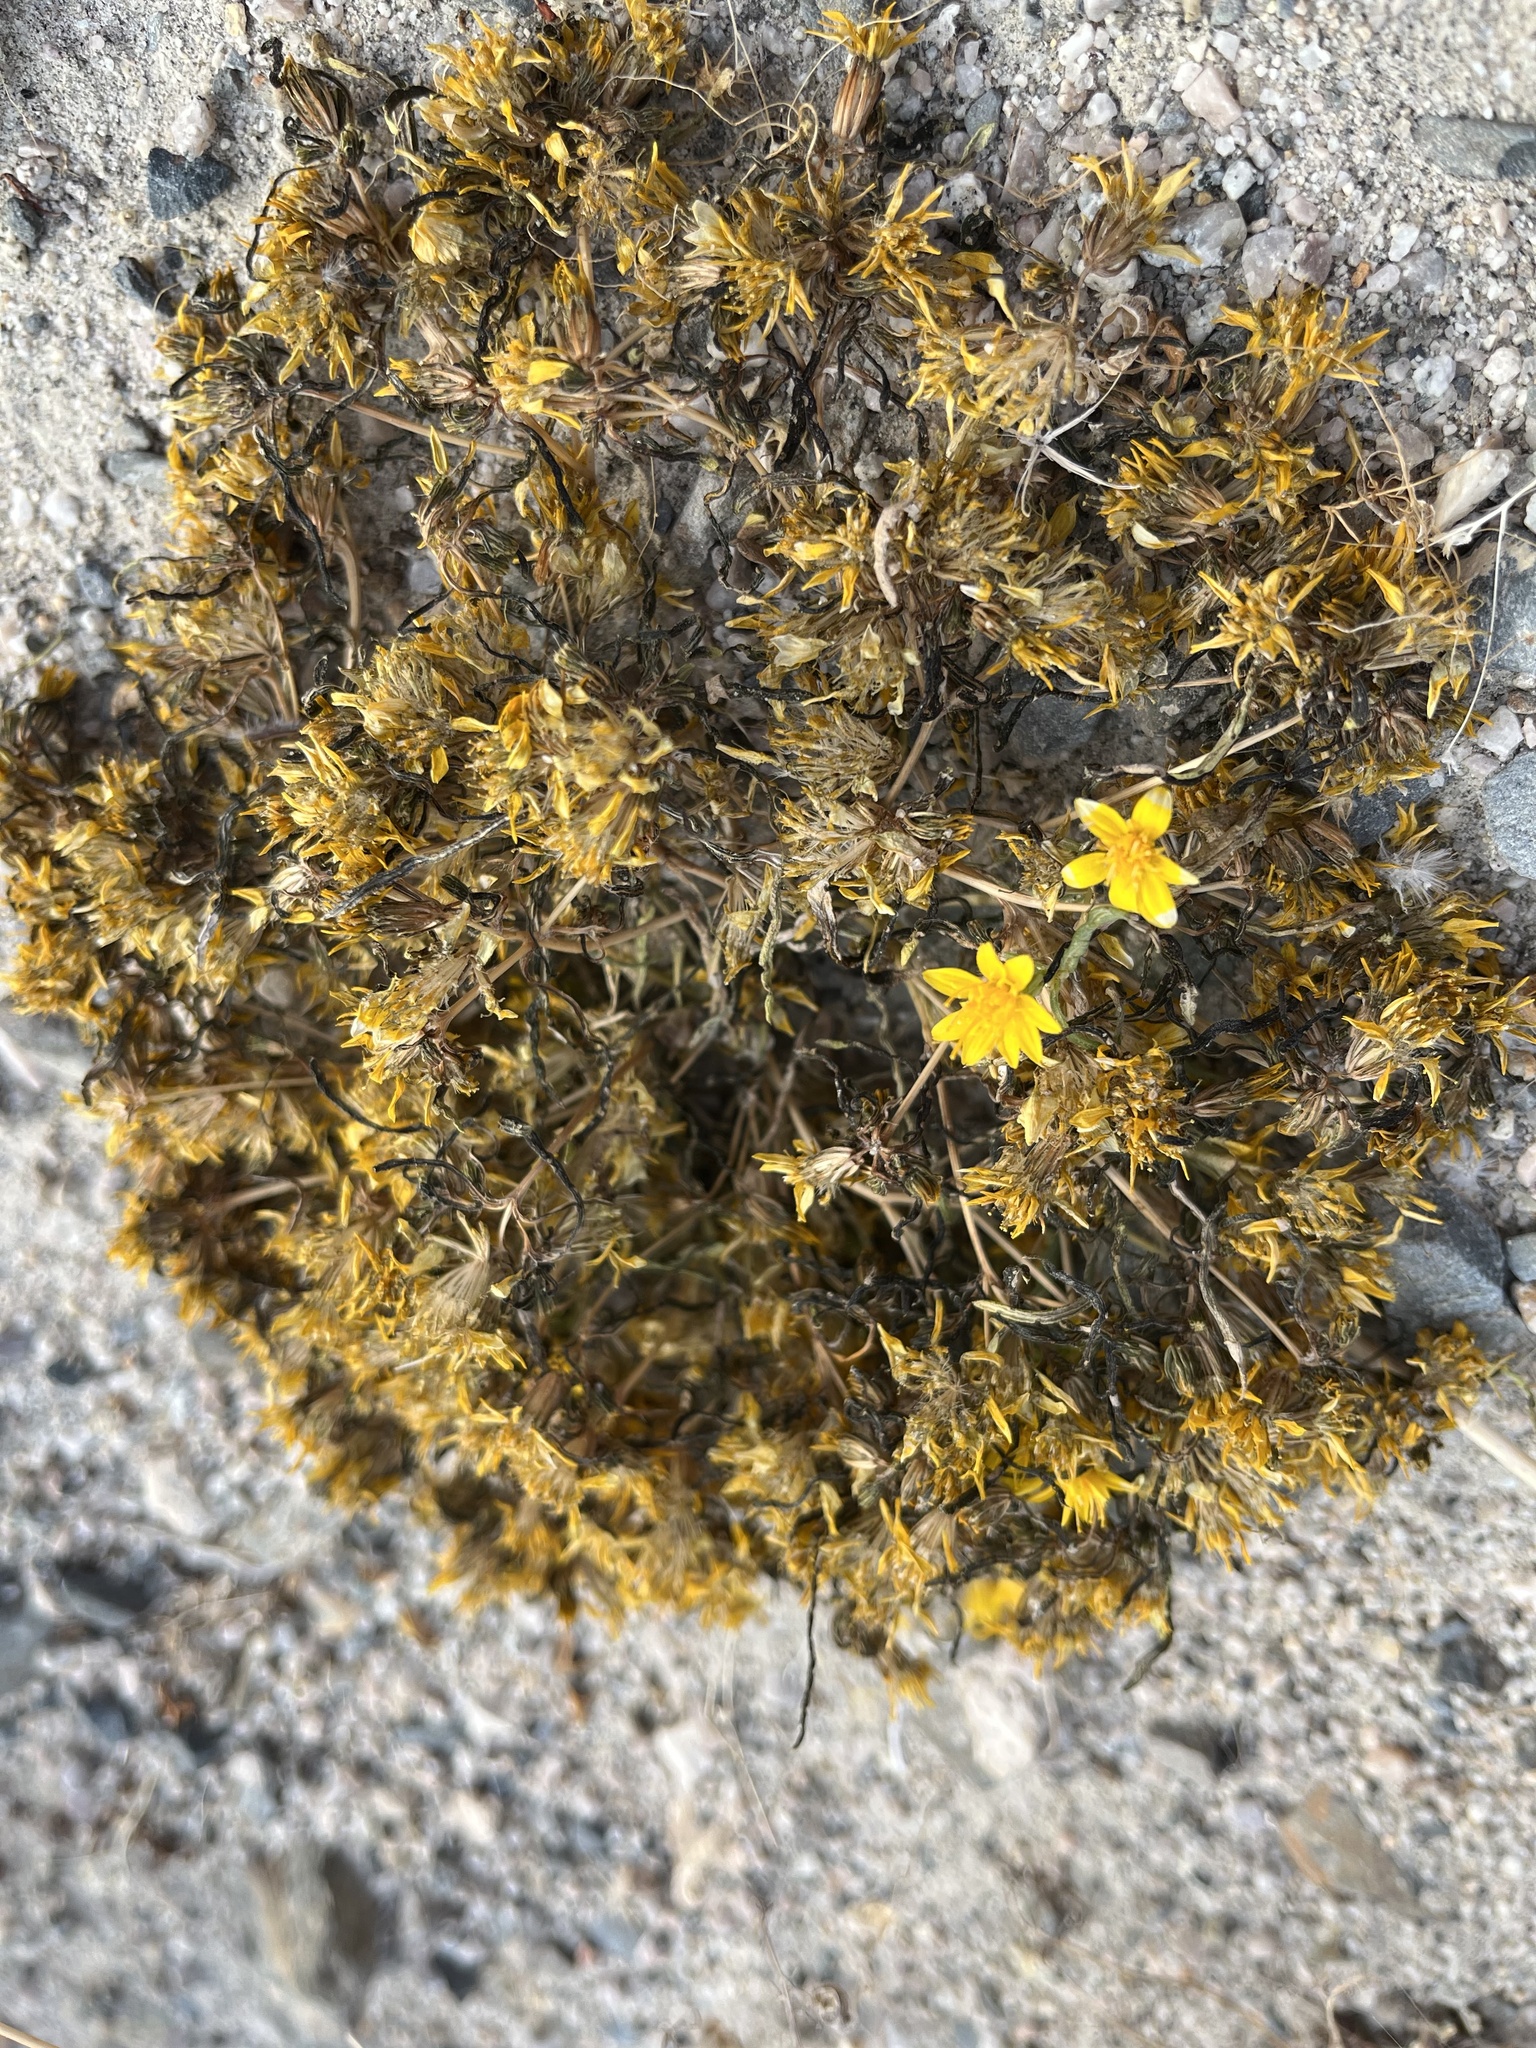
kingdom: Plantae
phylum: Tracheophyta
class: Magnoliopsida
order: Asterales
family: Asteraceae
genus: Pectis
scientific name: Pectis papposa
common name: Many-bristle chinchweed
